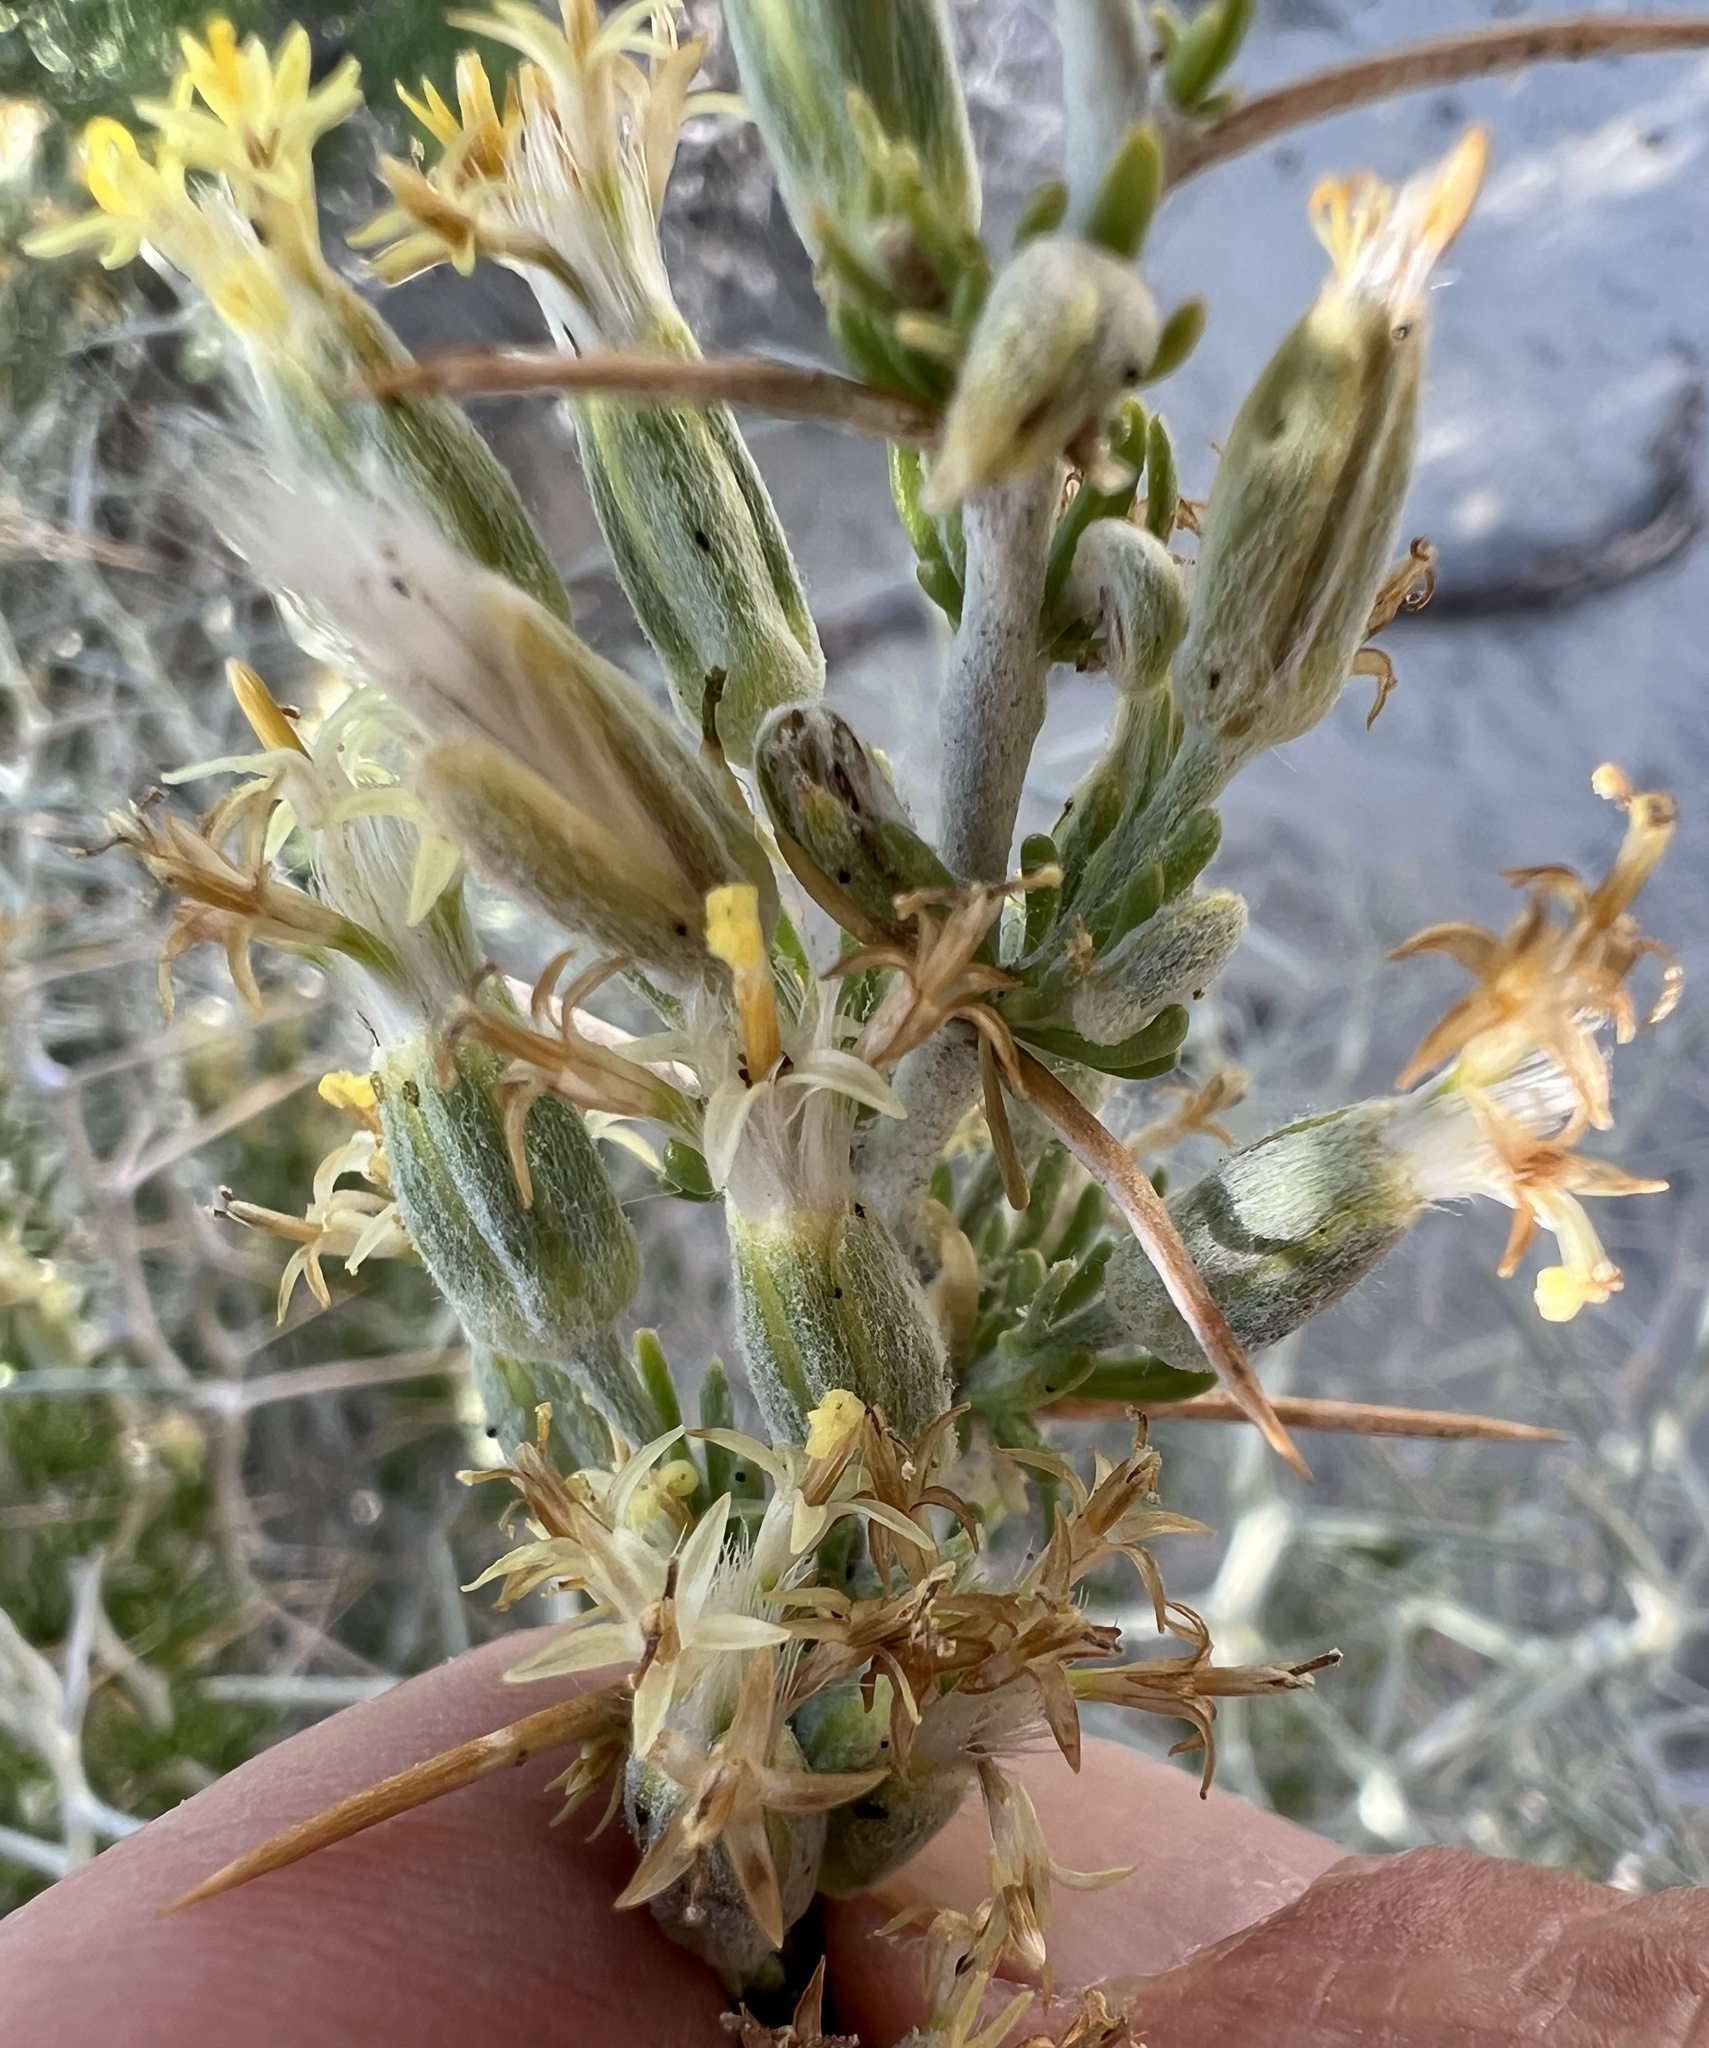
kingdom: Plantae
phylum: Tracheophyta
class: Magnoliopsida
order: Asterales
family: Asteraceae
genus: Tetradymia
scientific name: Tetradymia axillaris
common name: Long-spine horsebrush
